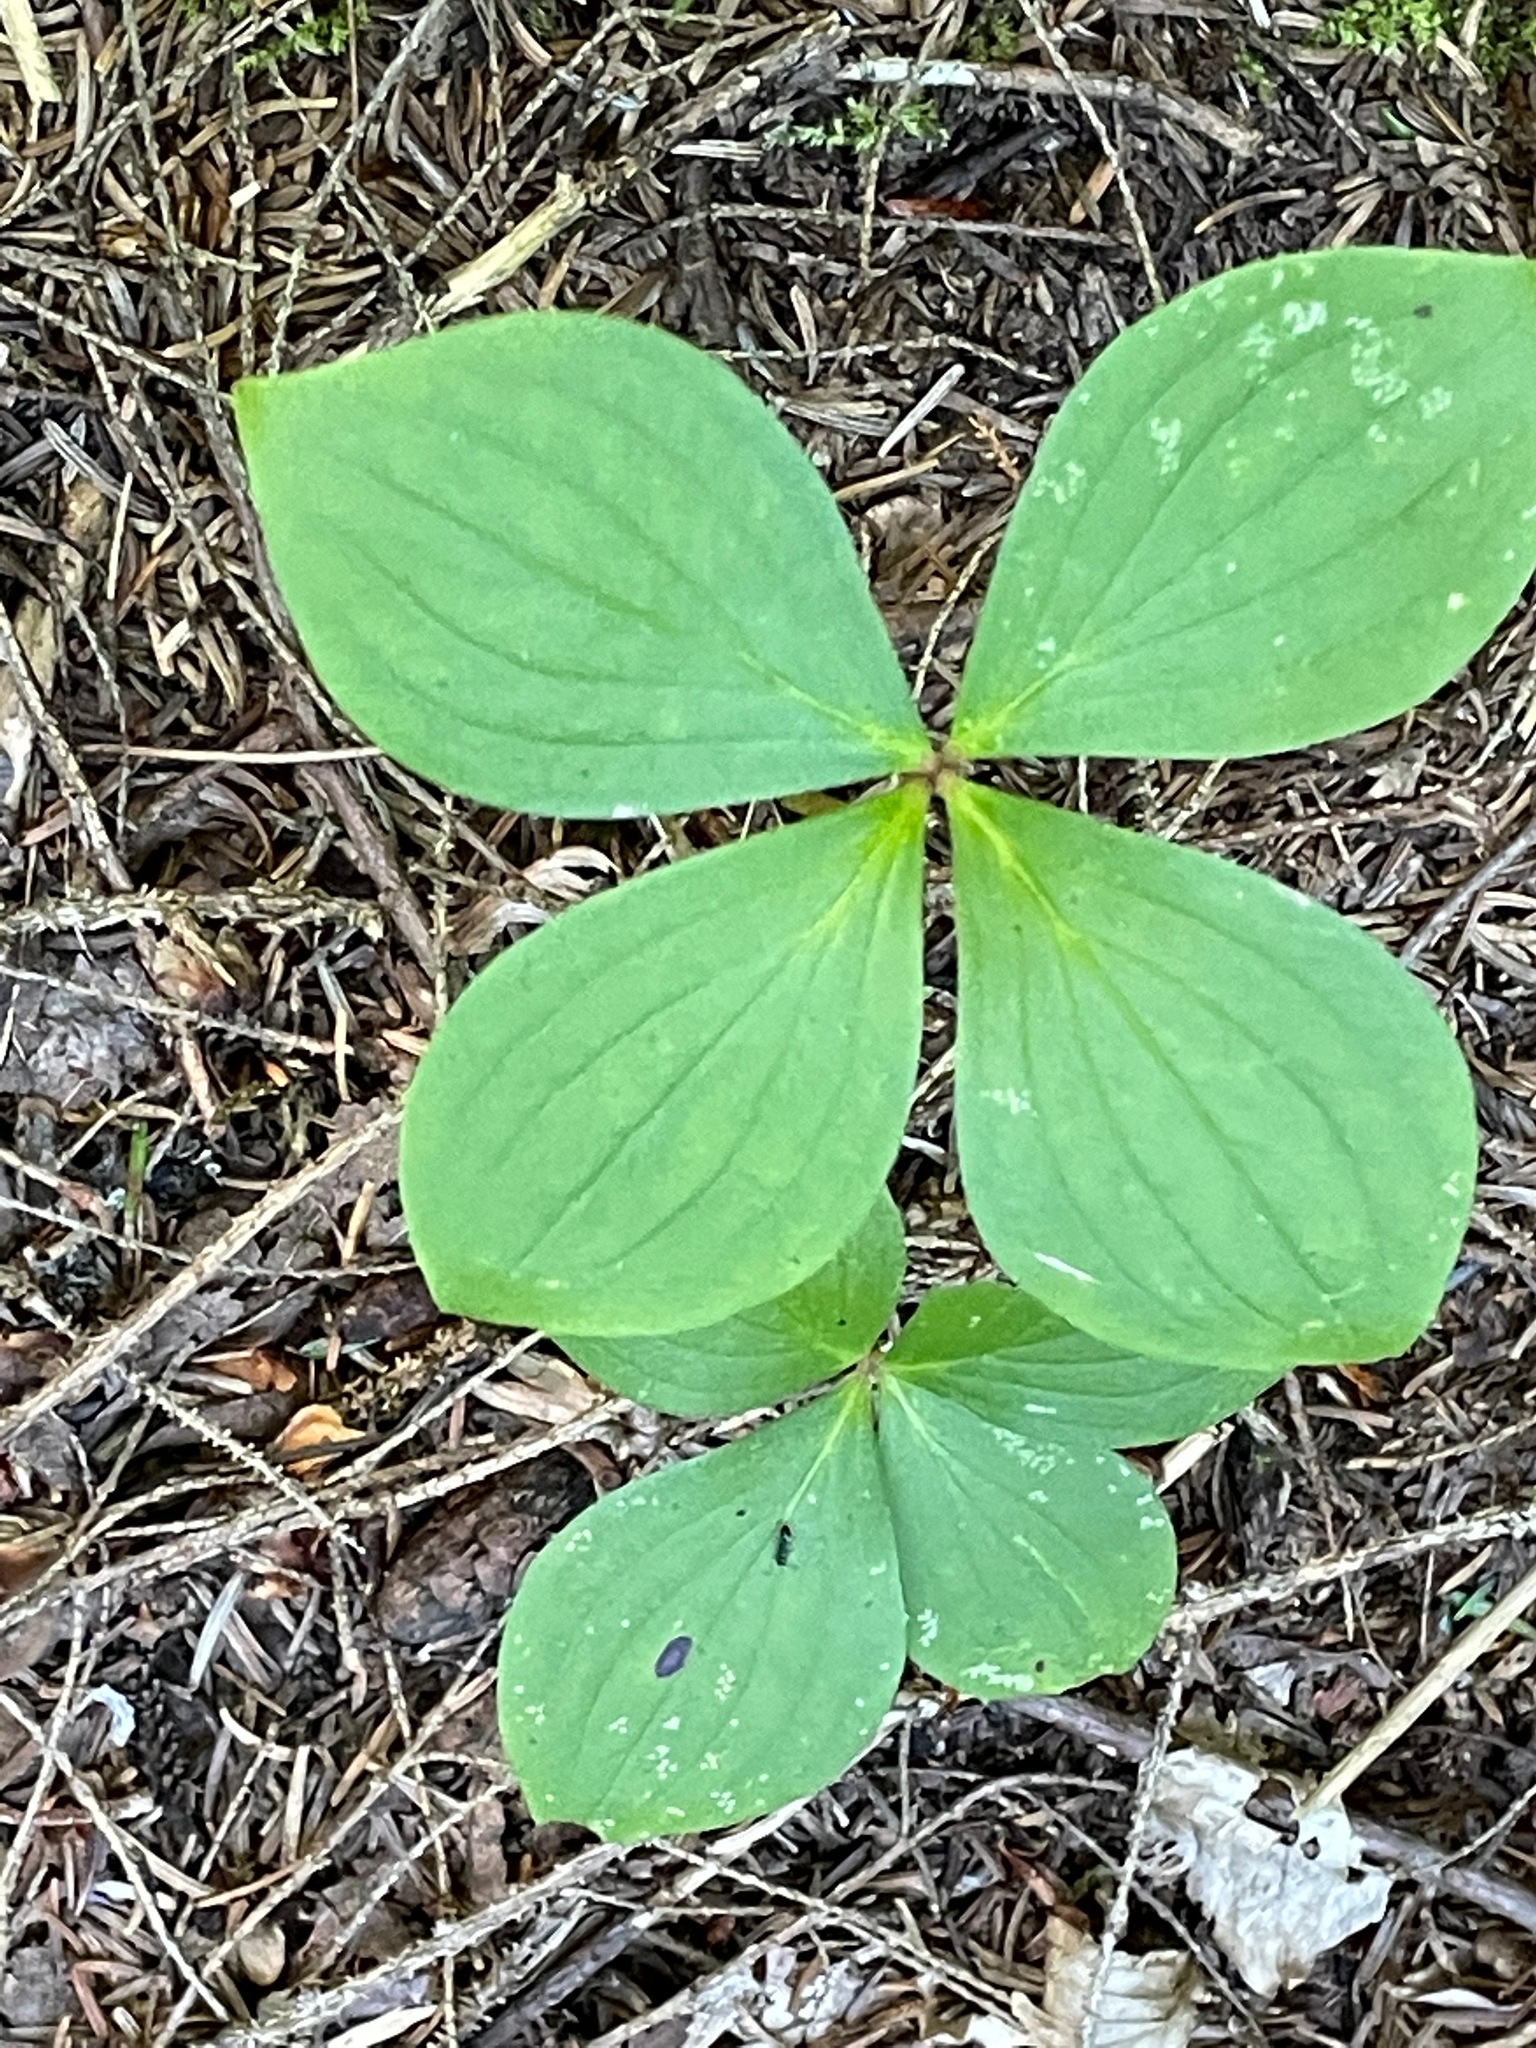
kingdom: Plantae
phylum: Tracheophyta
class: Magnoliopsida
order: Cornales
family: Cornaceae
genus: Cornus
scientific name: Cornus canadensis
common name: Creeping dogwood
